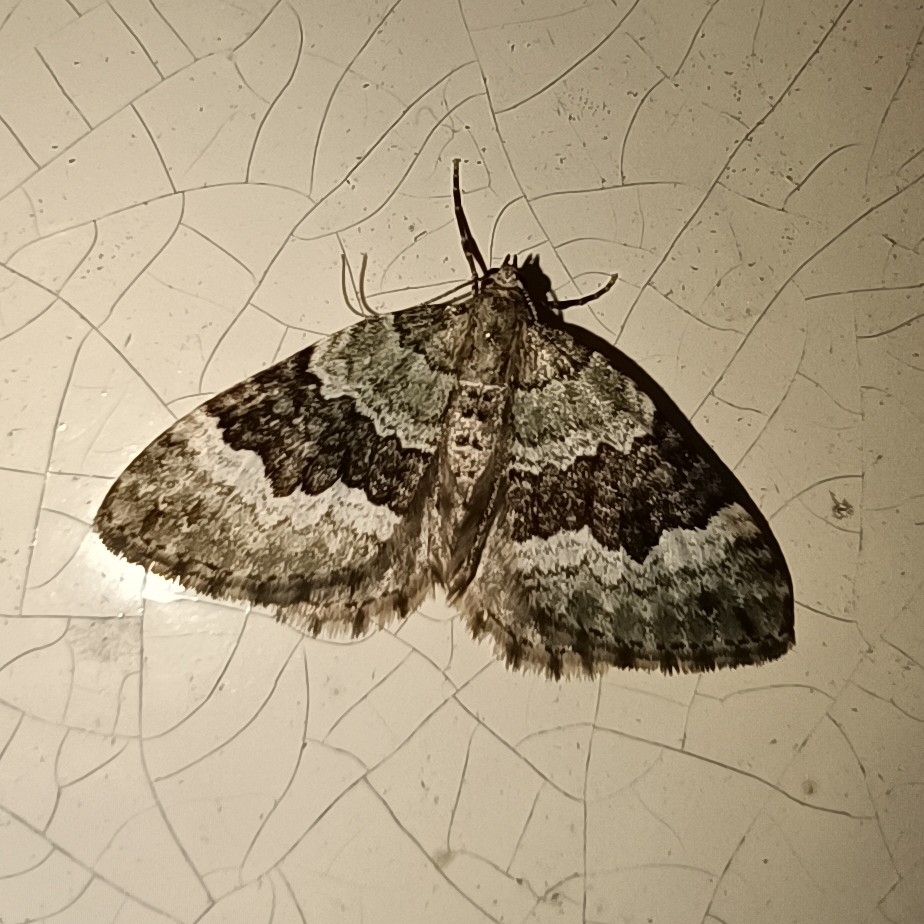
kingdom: Animalia
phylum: Arthropoda
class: Insecta
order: Lepidoptera
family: Geometridae
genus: Colostygia
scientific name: Colostygia aptata
